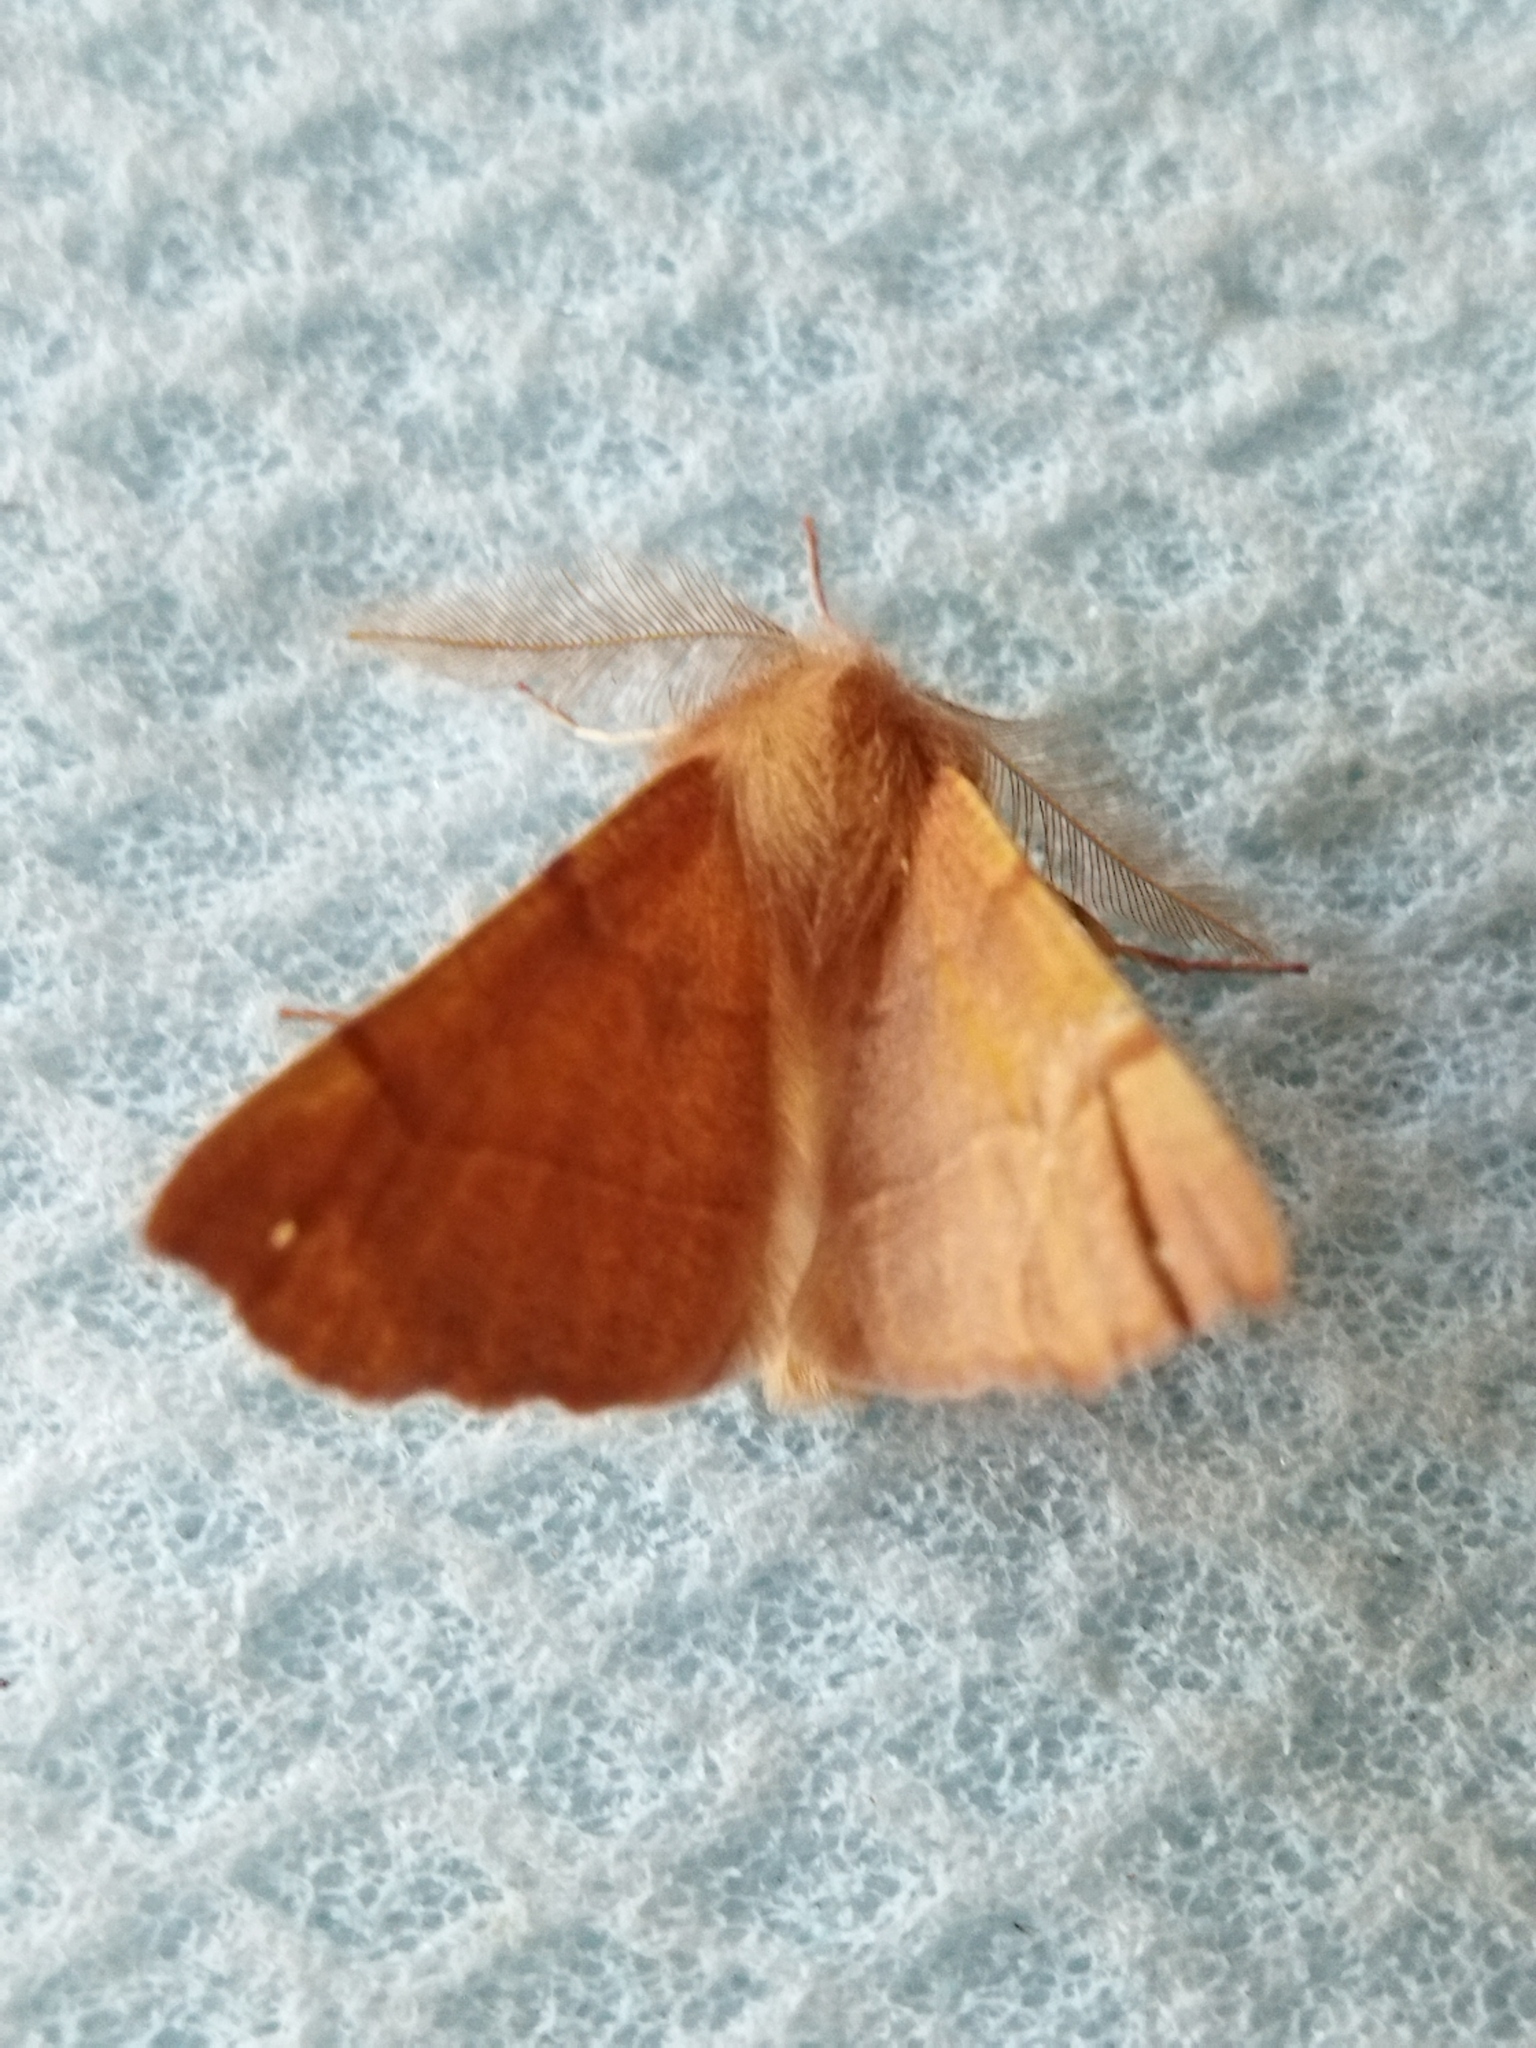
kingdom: Animalia
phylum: Arthropoda
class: Insecta
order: Lepidoptera
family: Geometridae
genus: Colotois
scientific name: Colotois pennaria
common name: Feathered thorn
